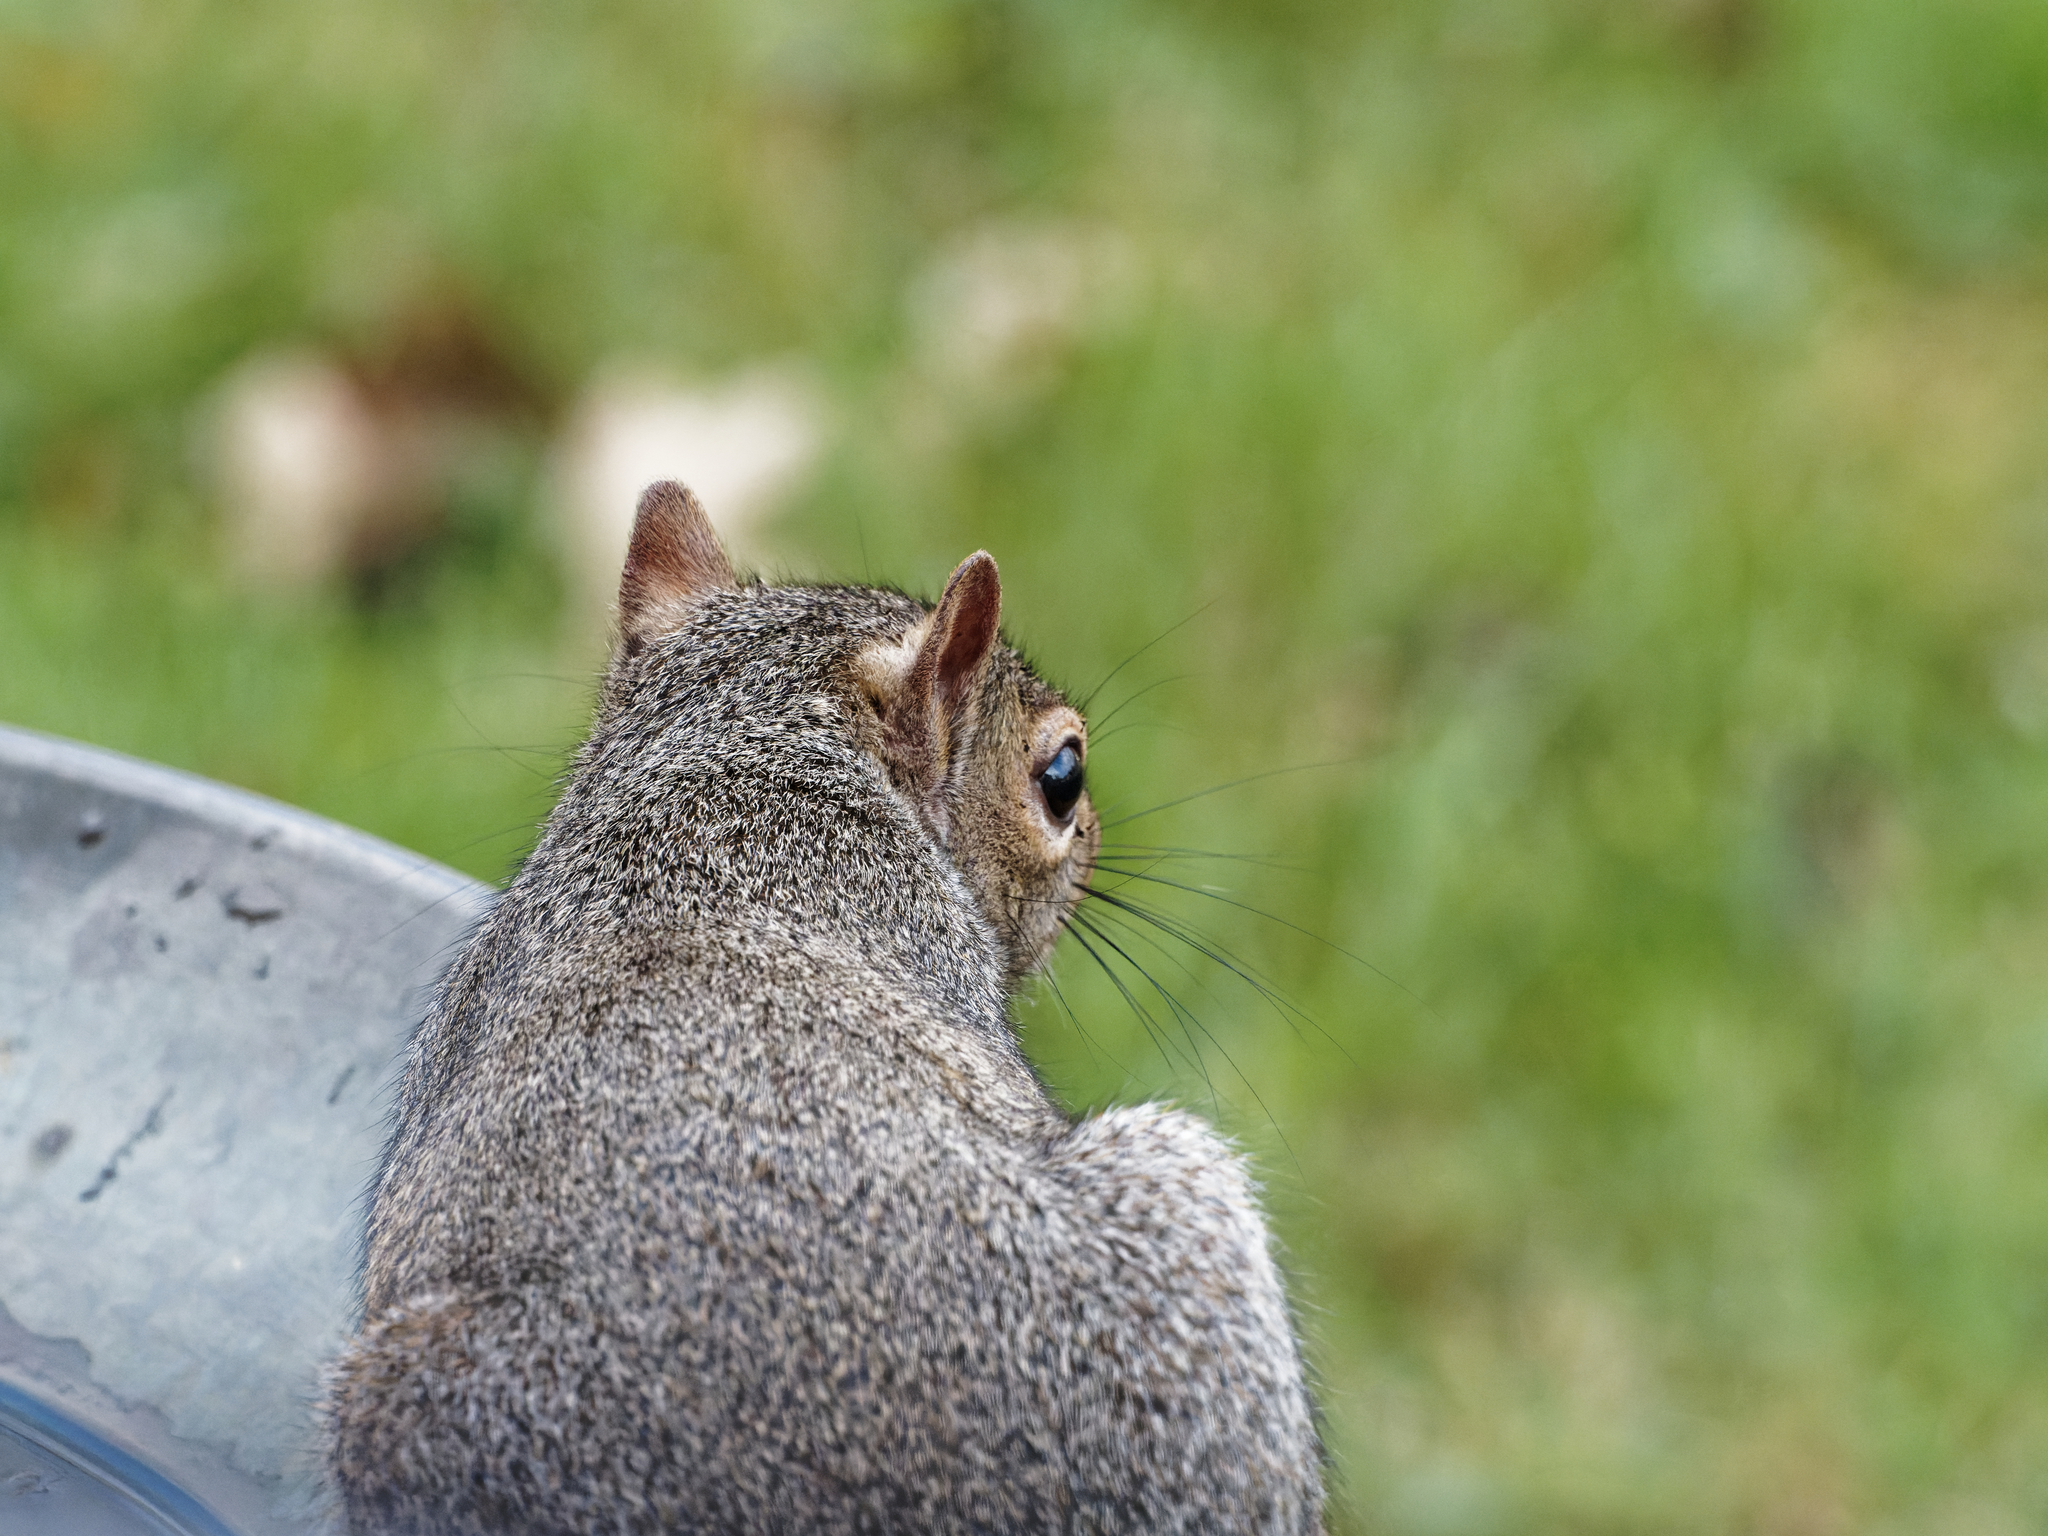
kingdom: Animalia
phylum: Chordata
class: Mammalia
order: Rodentia
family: Sciuridae
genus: Sciurus
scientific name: Sciurus carolinensis
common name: Eastern gray squirrel
